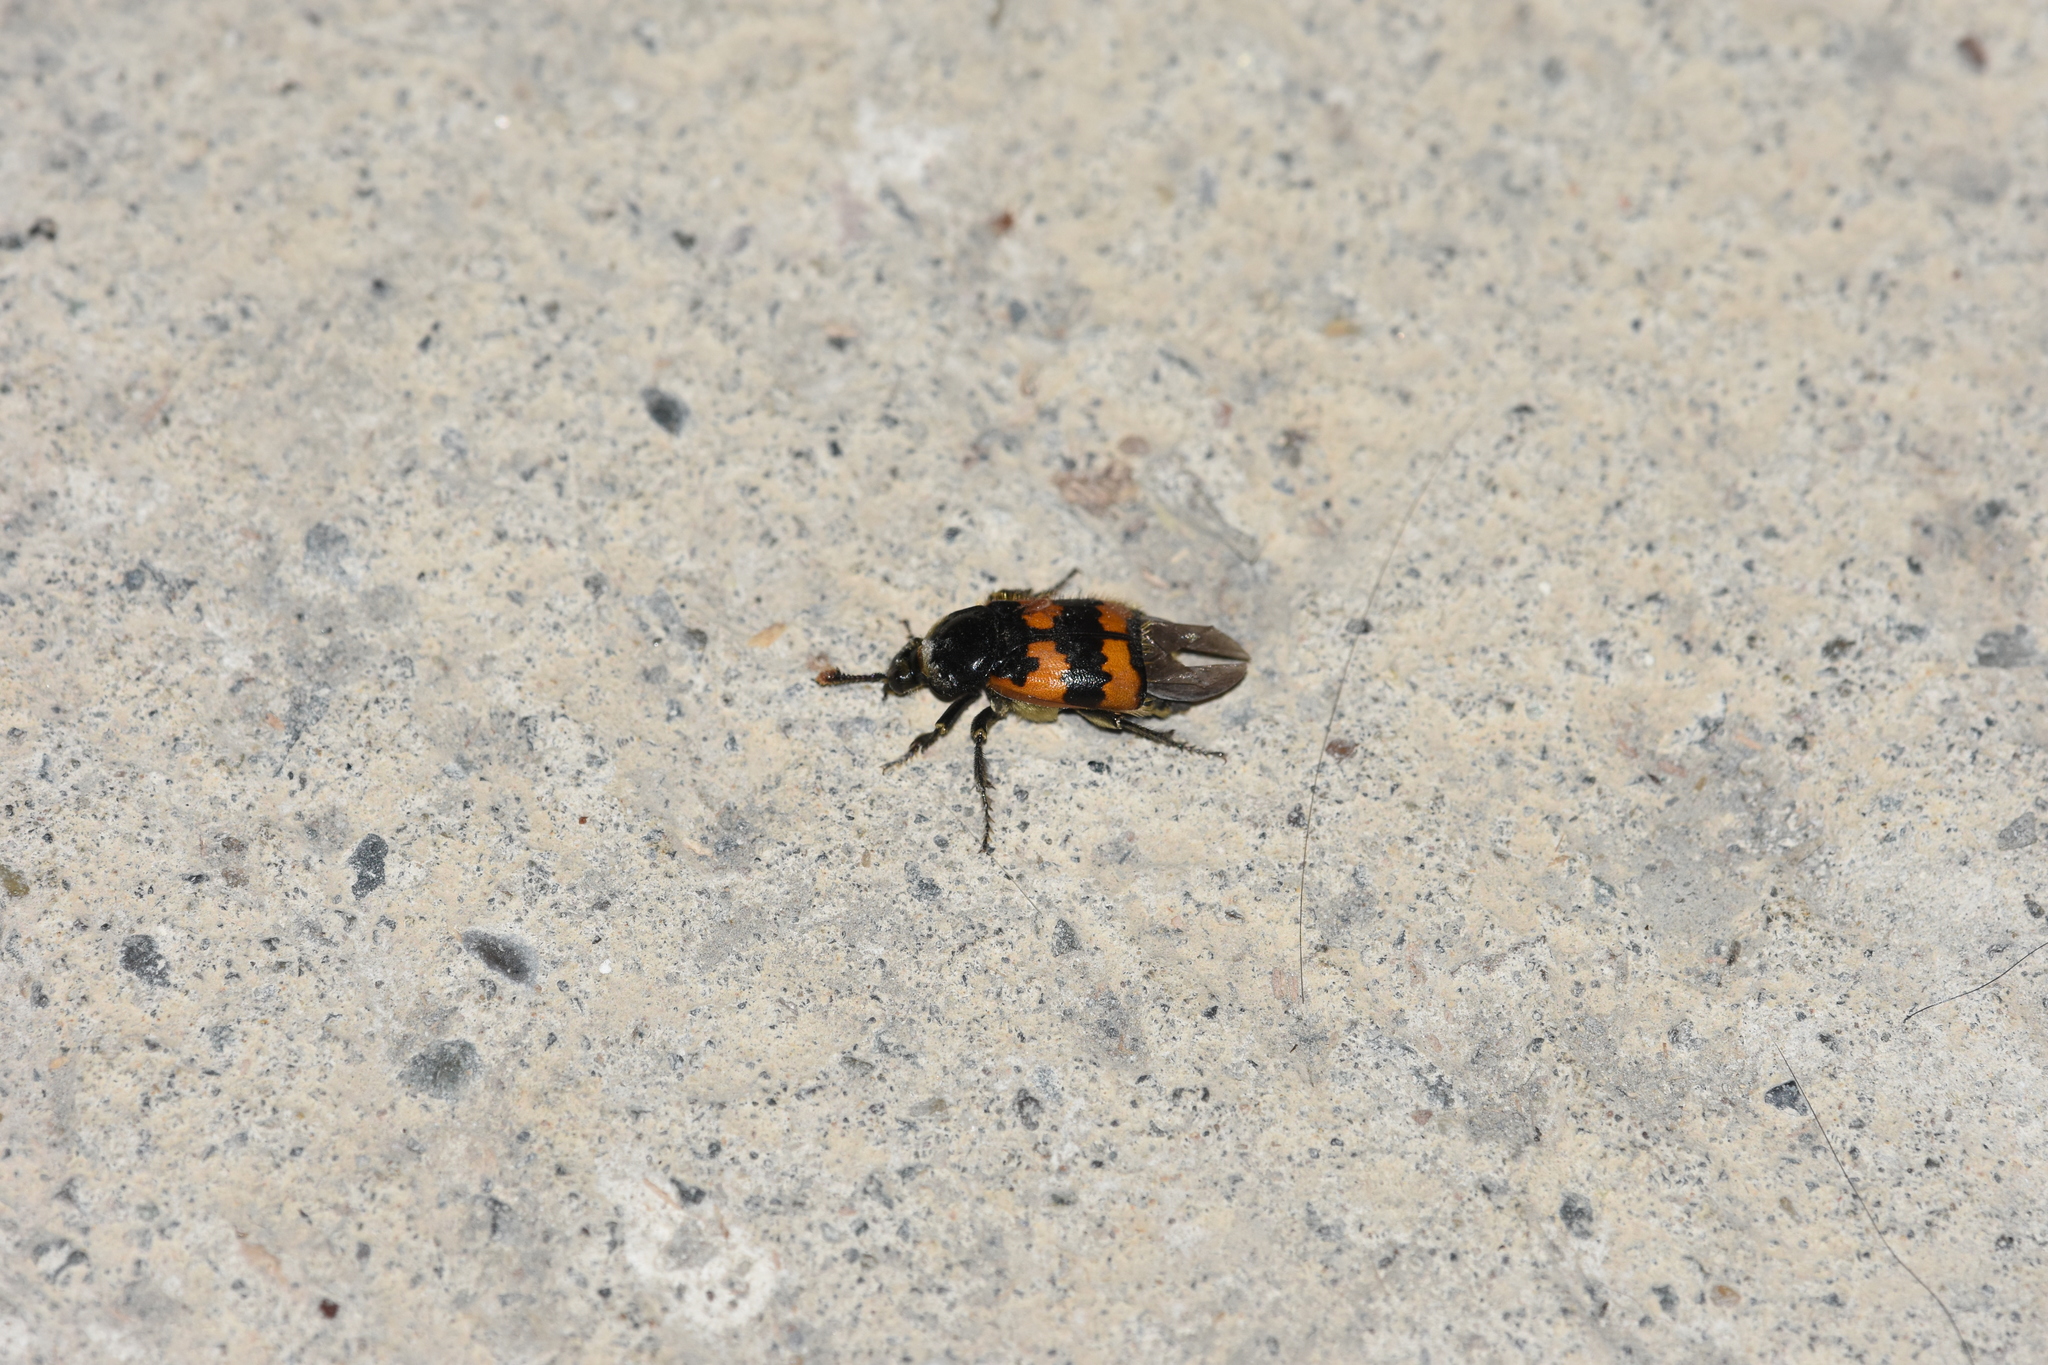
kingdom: Animalia
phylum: Arthropoda
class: Insecta
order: Coleoptera
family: Staphylinidae
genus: Nicrophorus
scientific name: Nicrophorus vespillo
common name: Common burying beetle
